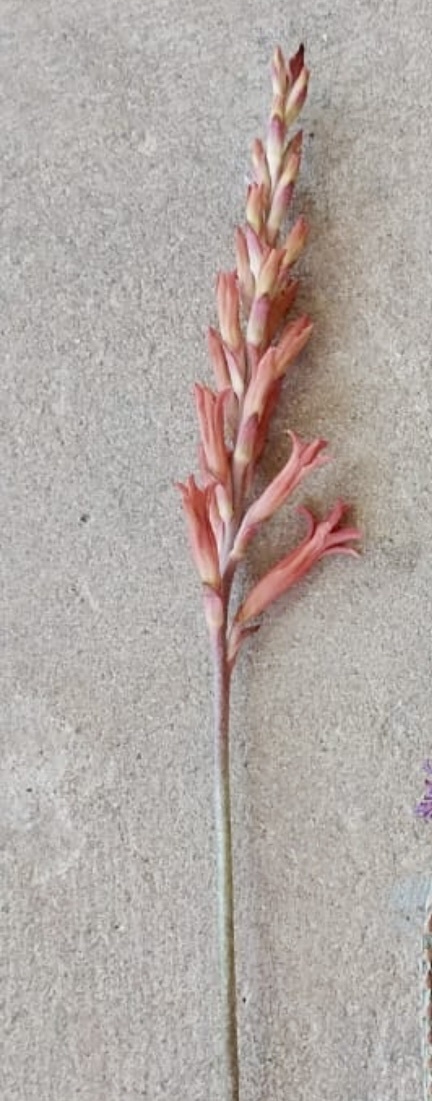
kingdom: Plantae
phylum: Tracheophyta
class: Liliopsida
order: Asparagales
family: Iridaceae
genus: Tritoniopsis
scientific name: Tritoniopsis antholyza
